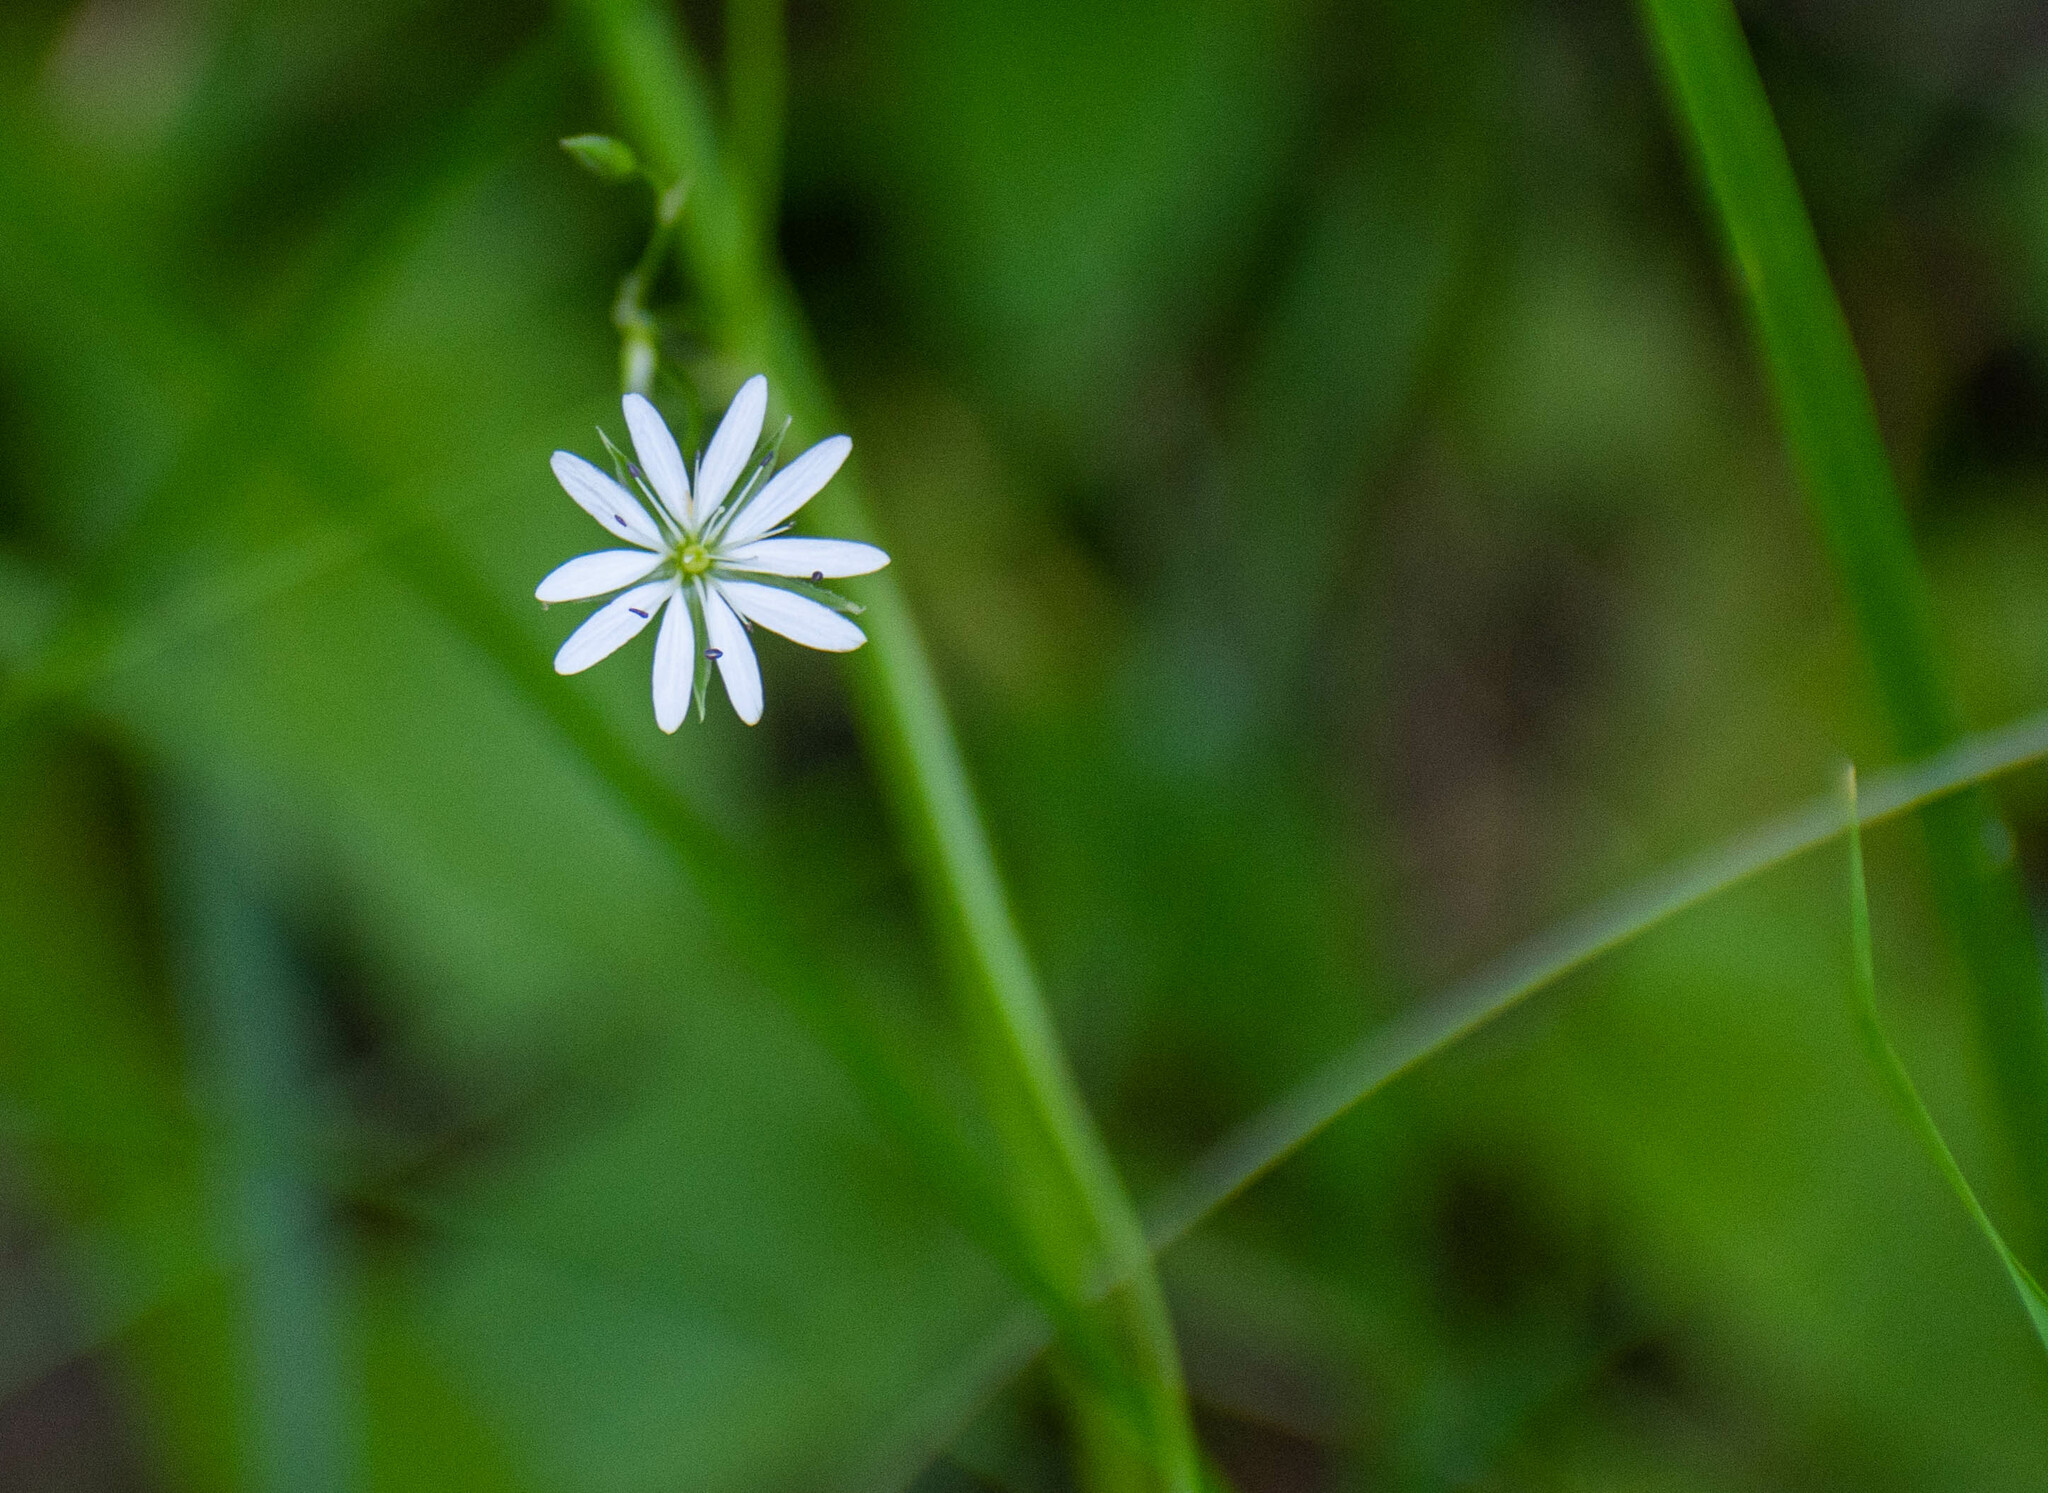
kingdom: Plantae
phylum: Tracheophyta
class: Magnoliopsida
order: Caryophyllales
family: Caryophyllaceae
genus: Stellaria
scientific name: Stellaria graminea
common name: Grass-like starwort
